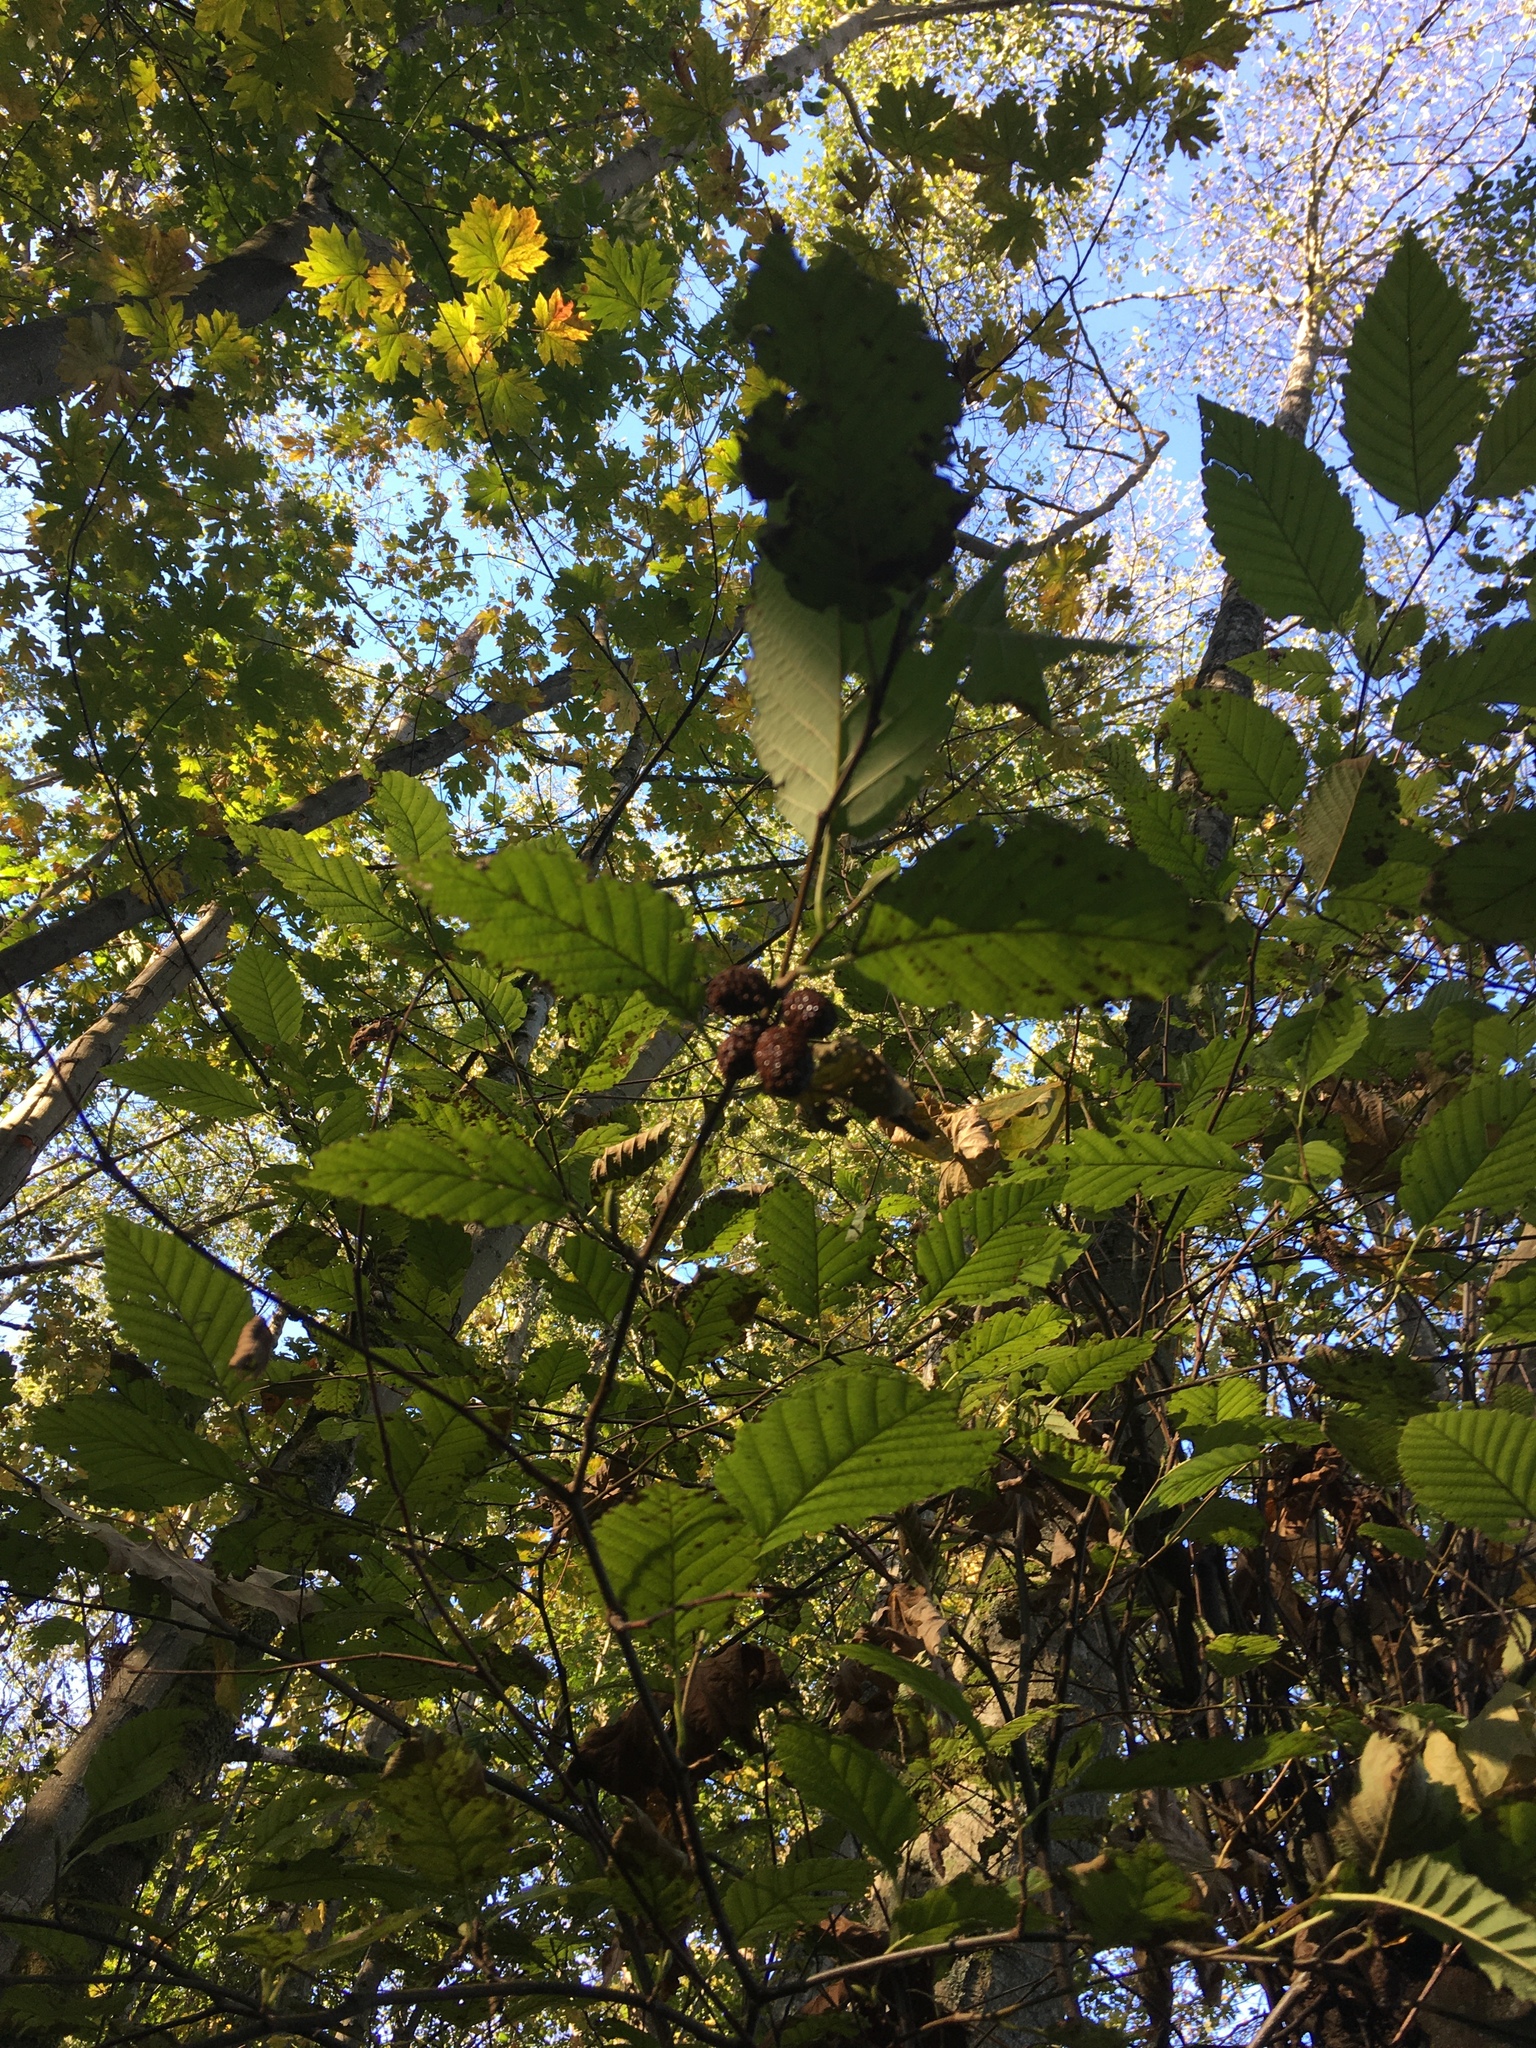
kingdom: Plantae
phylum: Tracheophyta
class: Magnoliopsida
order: Fagales
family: Betulaceae
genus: Alnus
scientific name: Alnus rubra
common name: Red alder
